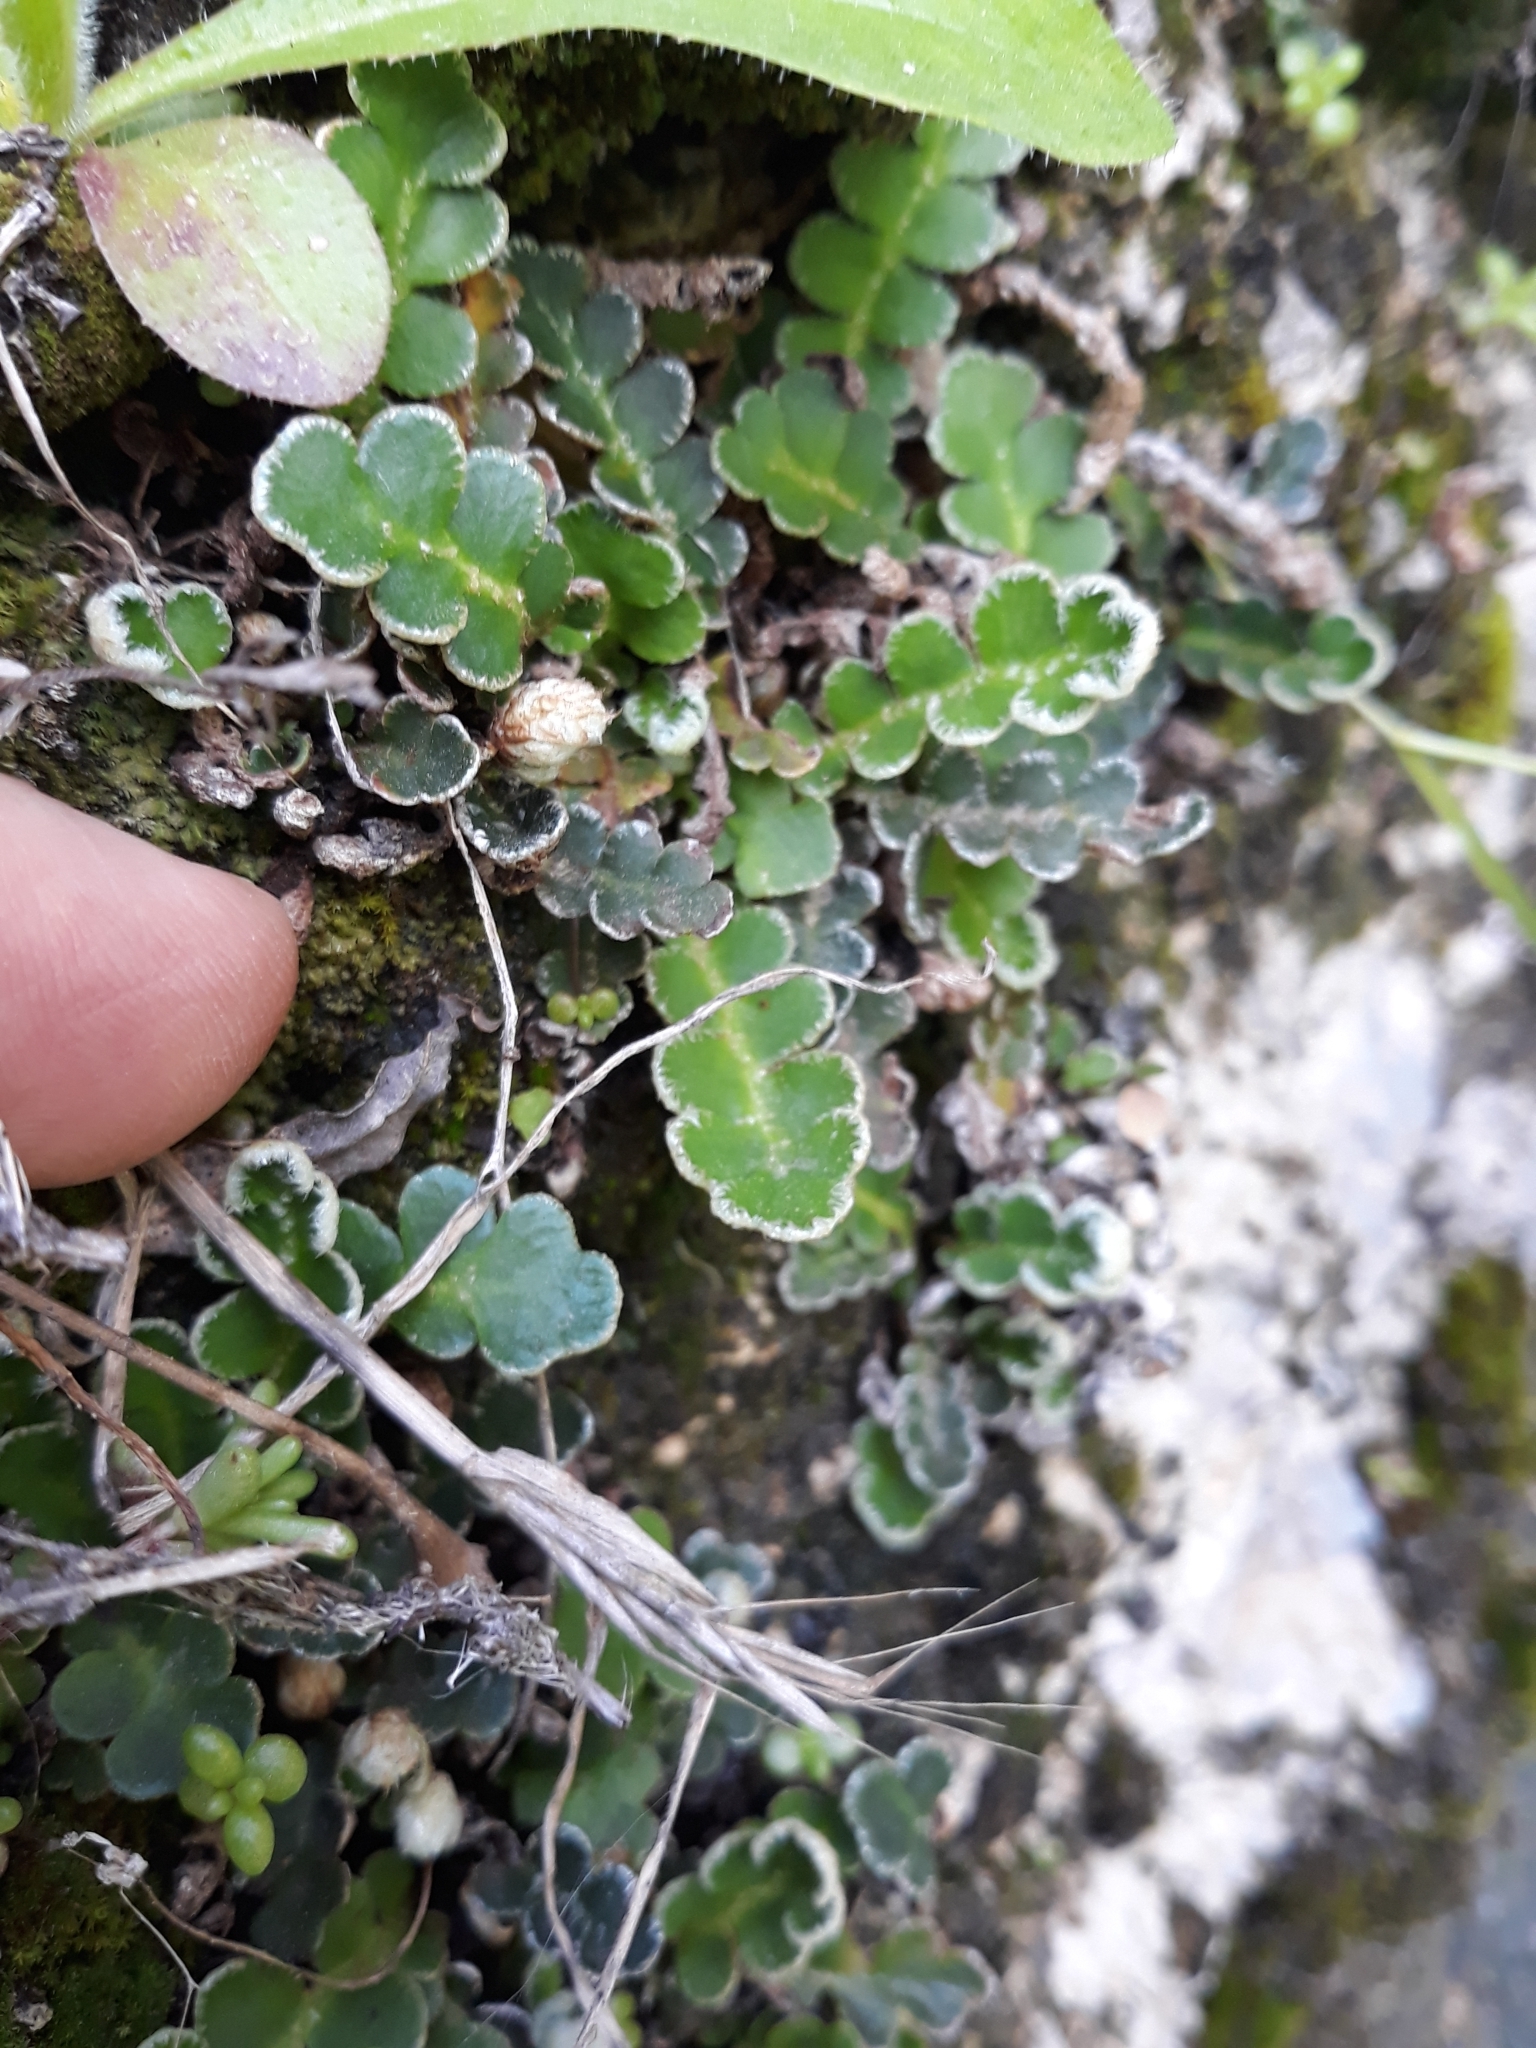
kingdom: Plantae
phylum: Tracheophyta
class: Polypodiopsida
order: Polypodiales
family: Aspleniaceae
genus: Asplenium
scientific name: Asplenium ceterach
